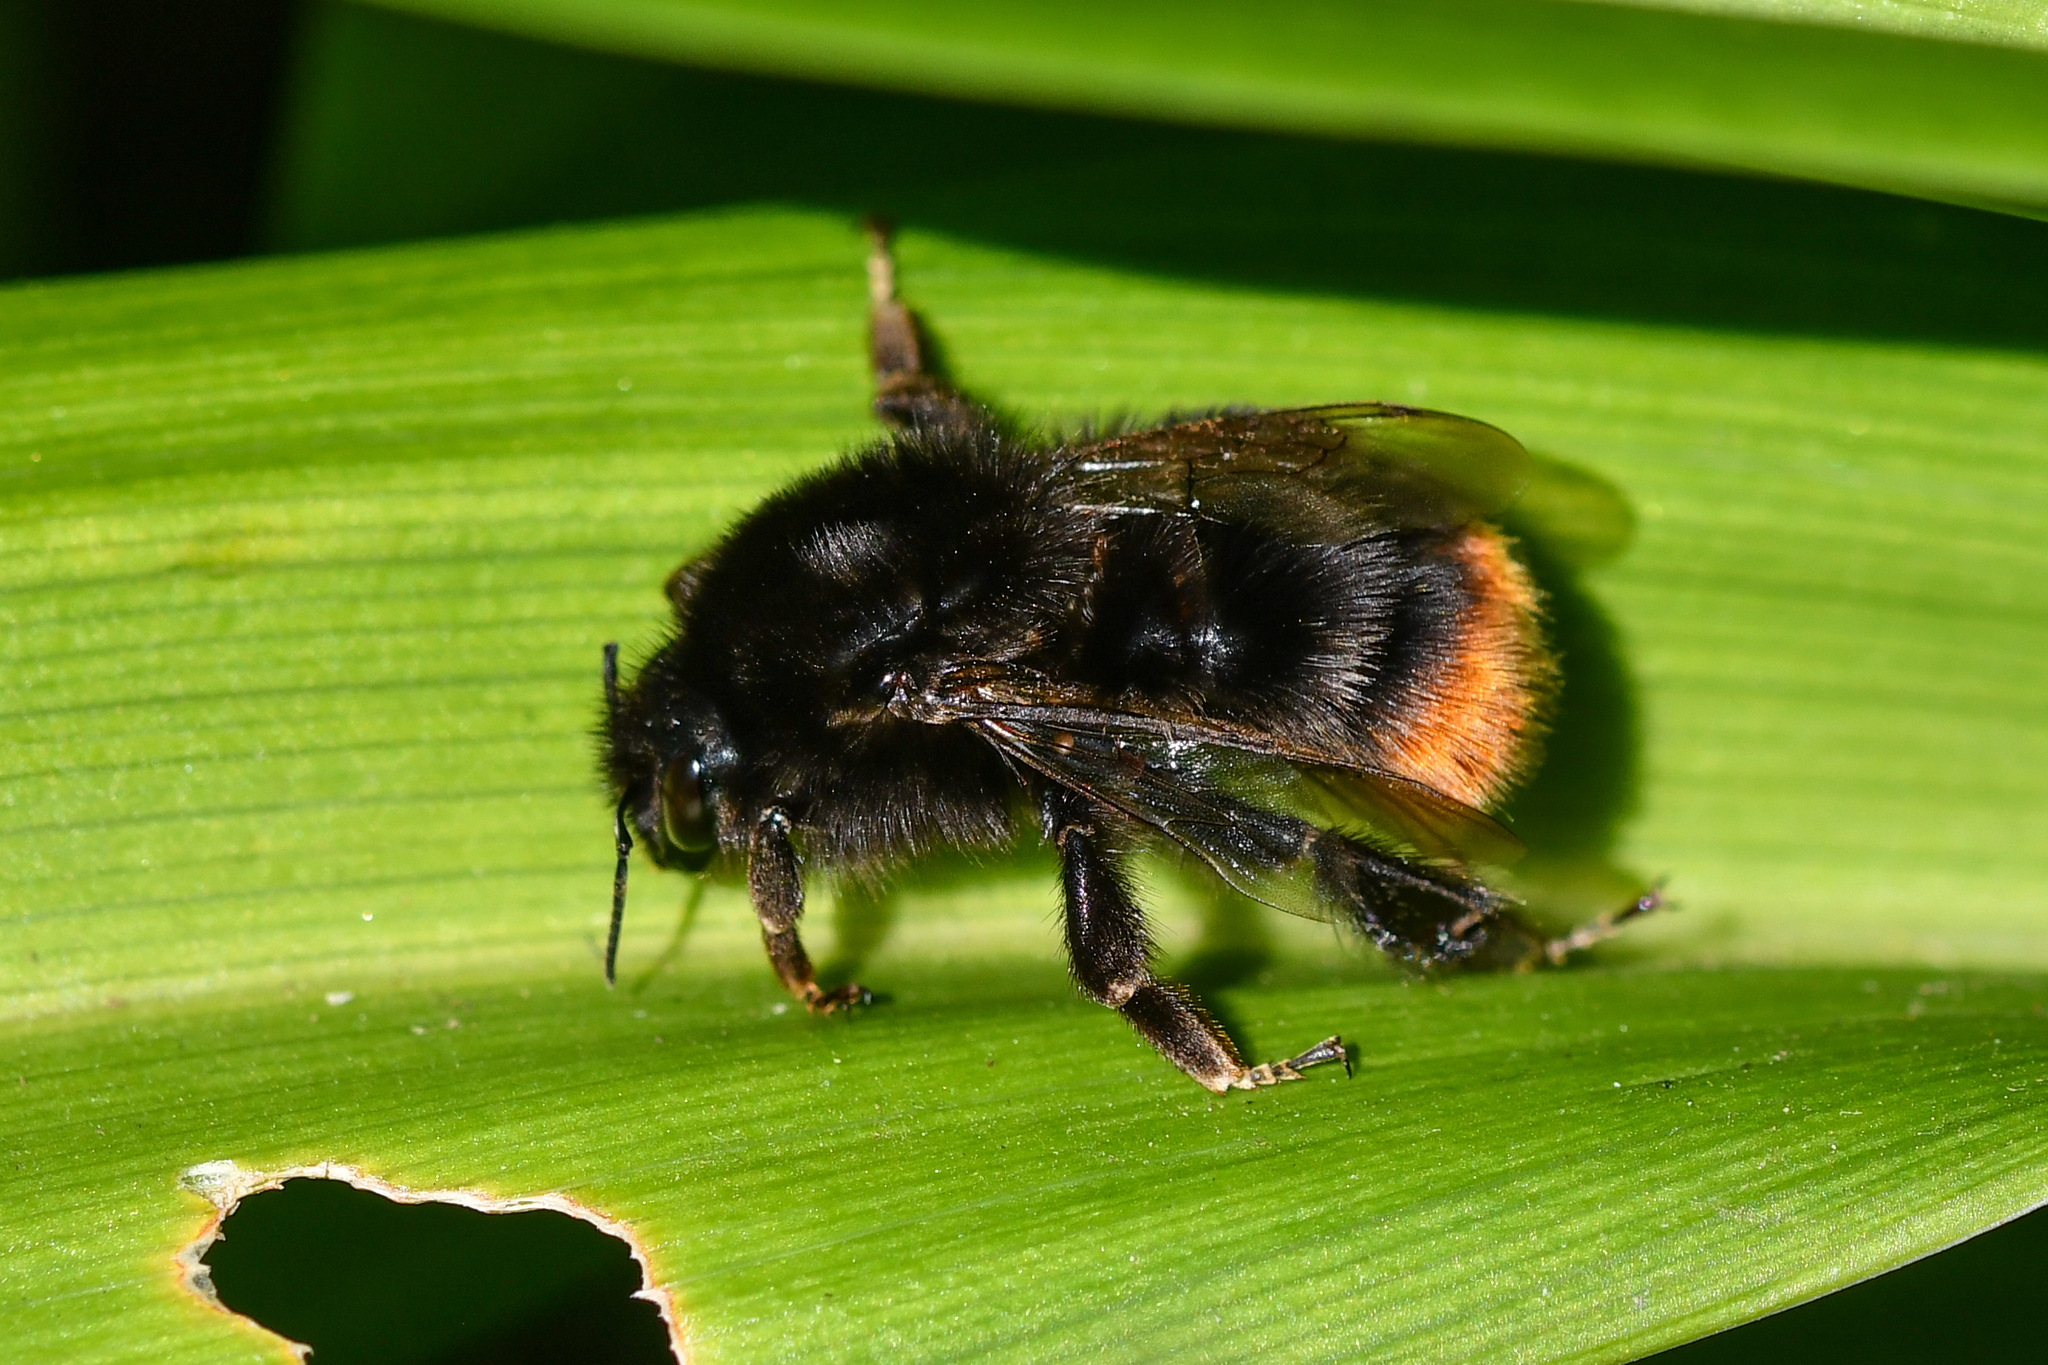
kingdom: Animalia
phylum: Arthropoda
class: Insecta
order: Hymenoptera
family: Apidae
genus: Bombus
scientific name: Bombus lapidarius
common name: Large red-tailed humble-bee
